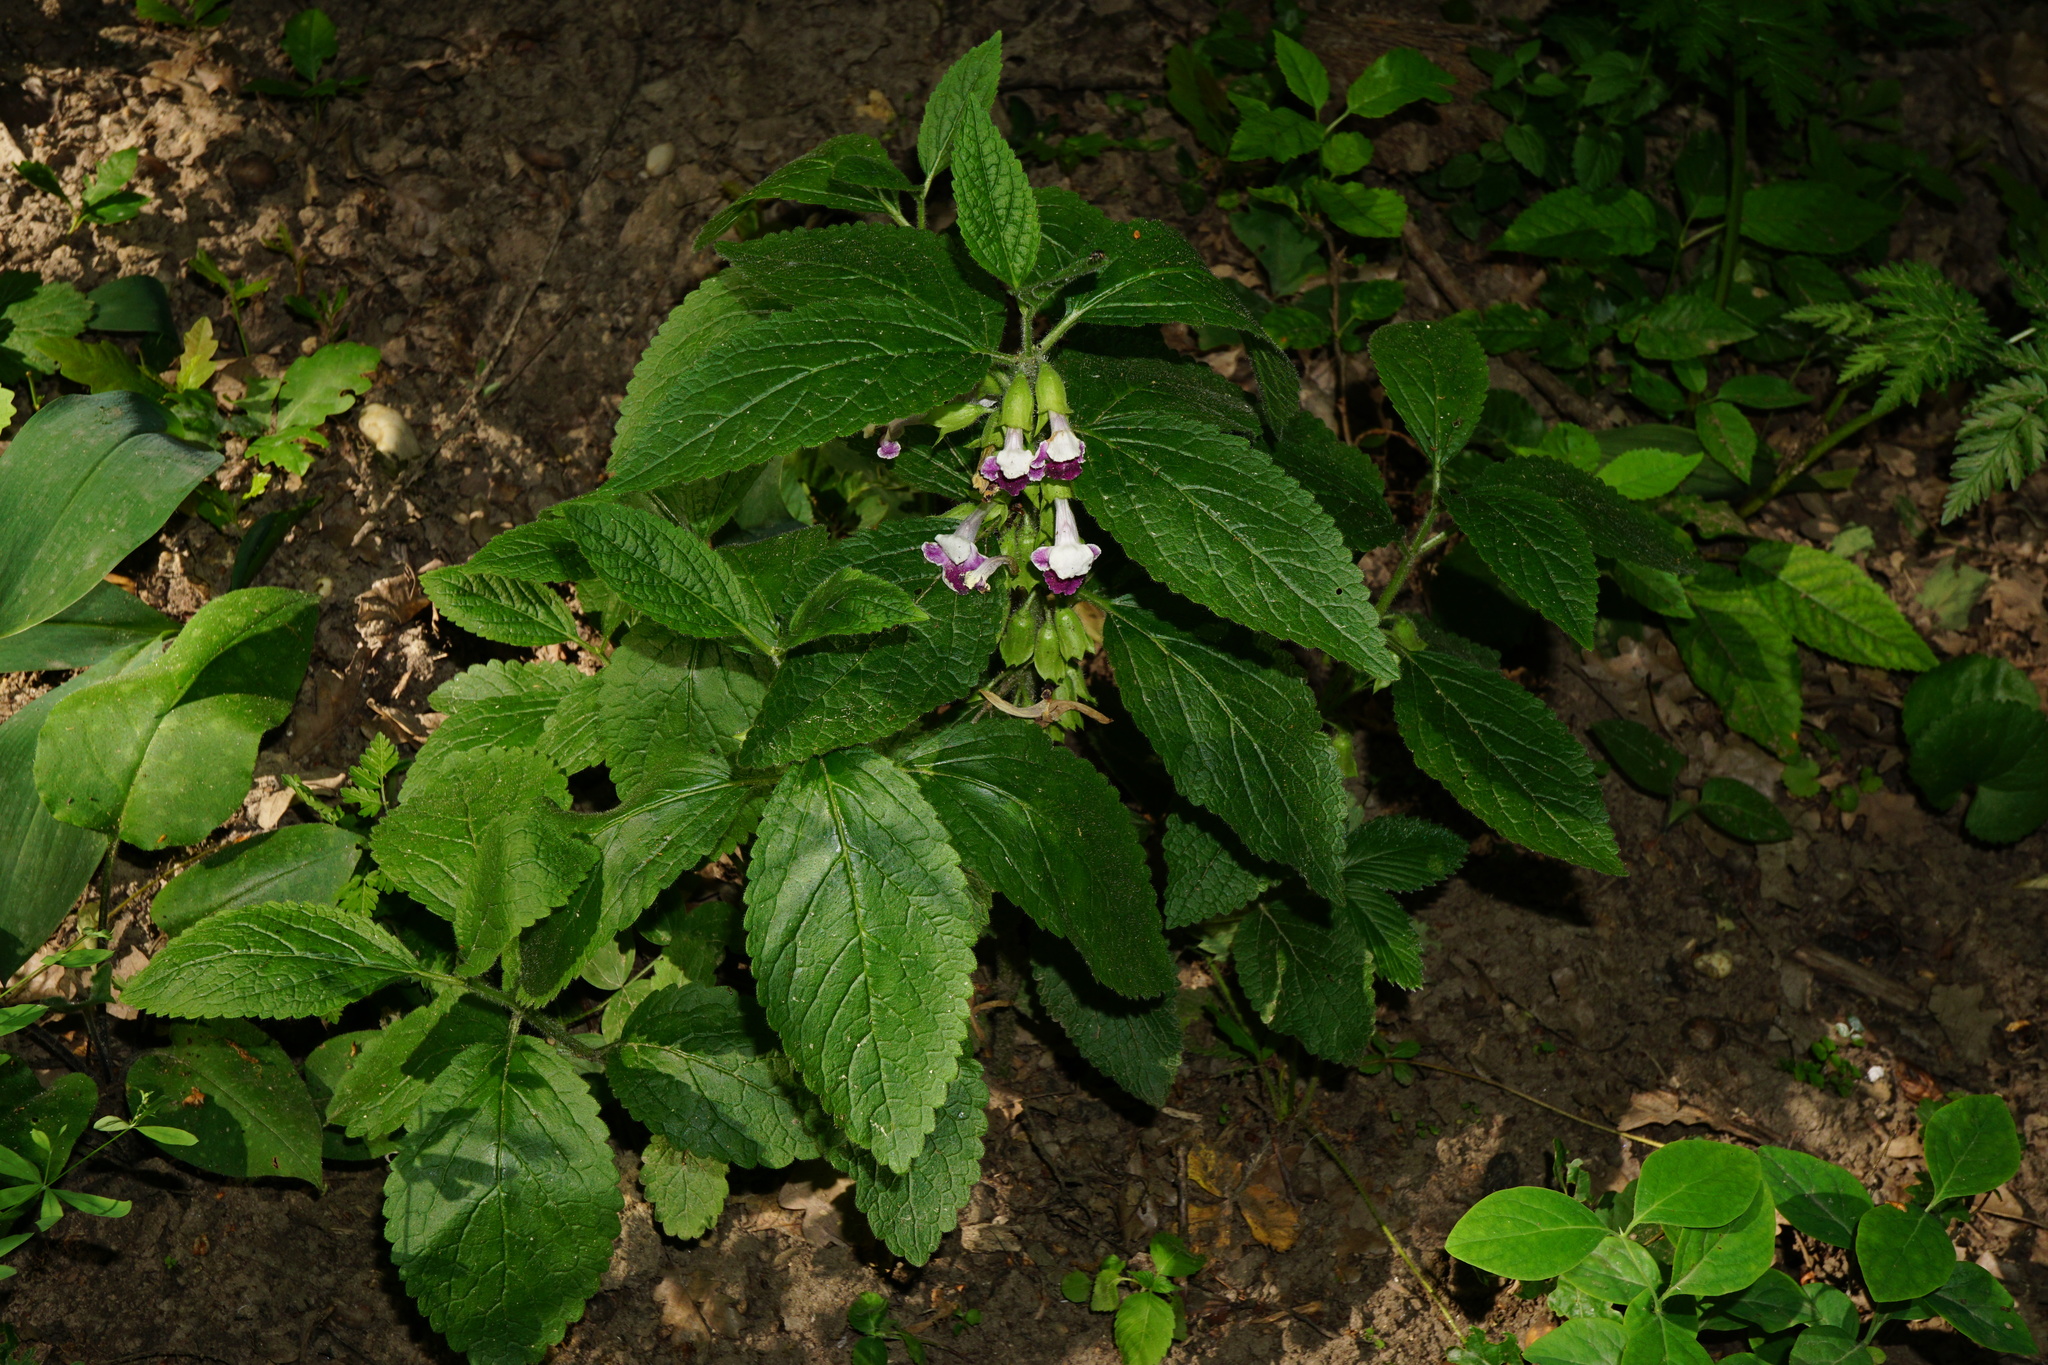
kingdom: Plantae
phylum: Tracheophyta
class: Magnoliopsida
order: Lamiales
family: Lamiaceae
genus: Melittis
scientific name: Melittis melissophyllum
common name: Bastard balm
